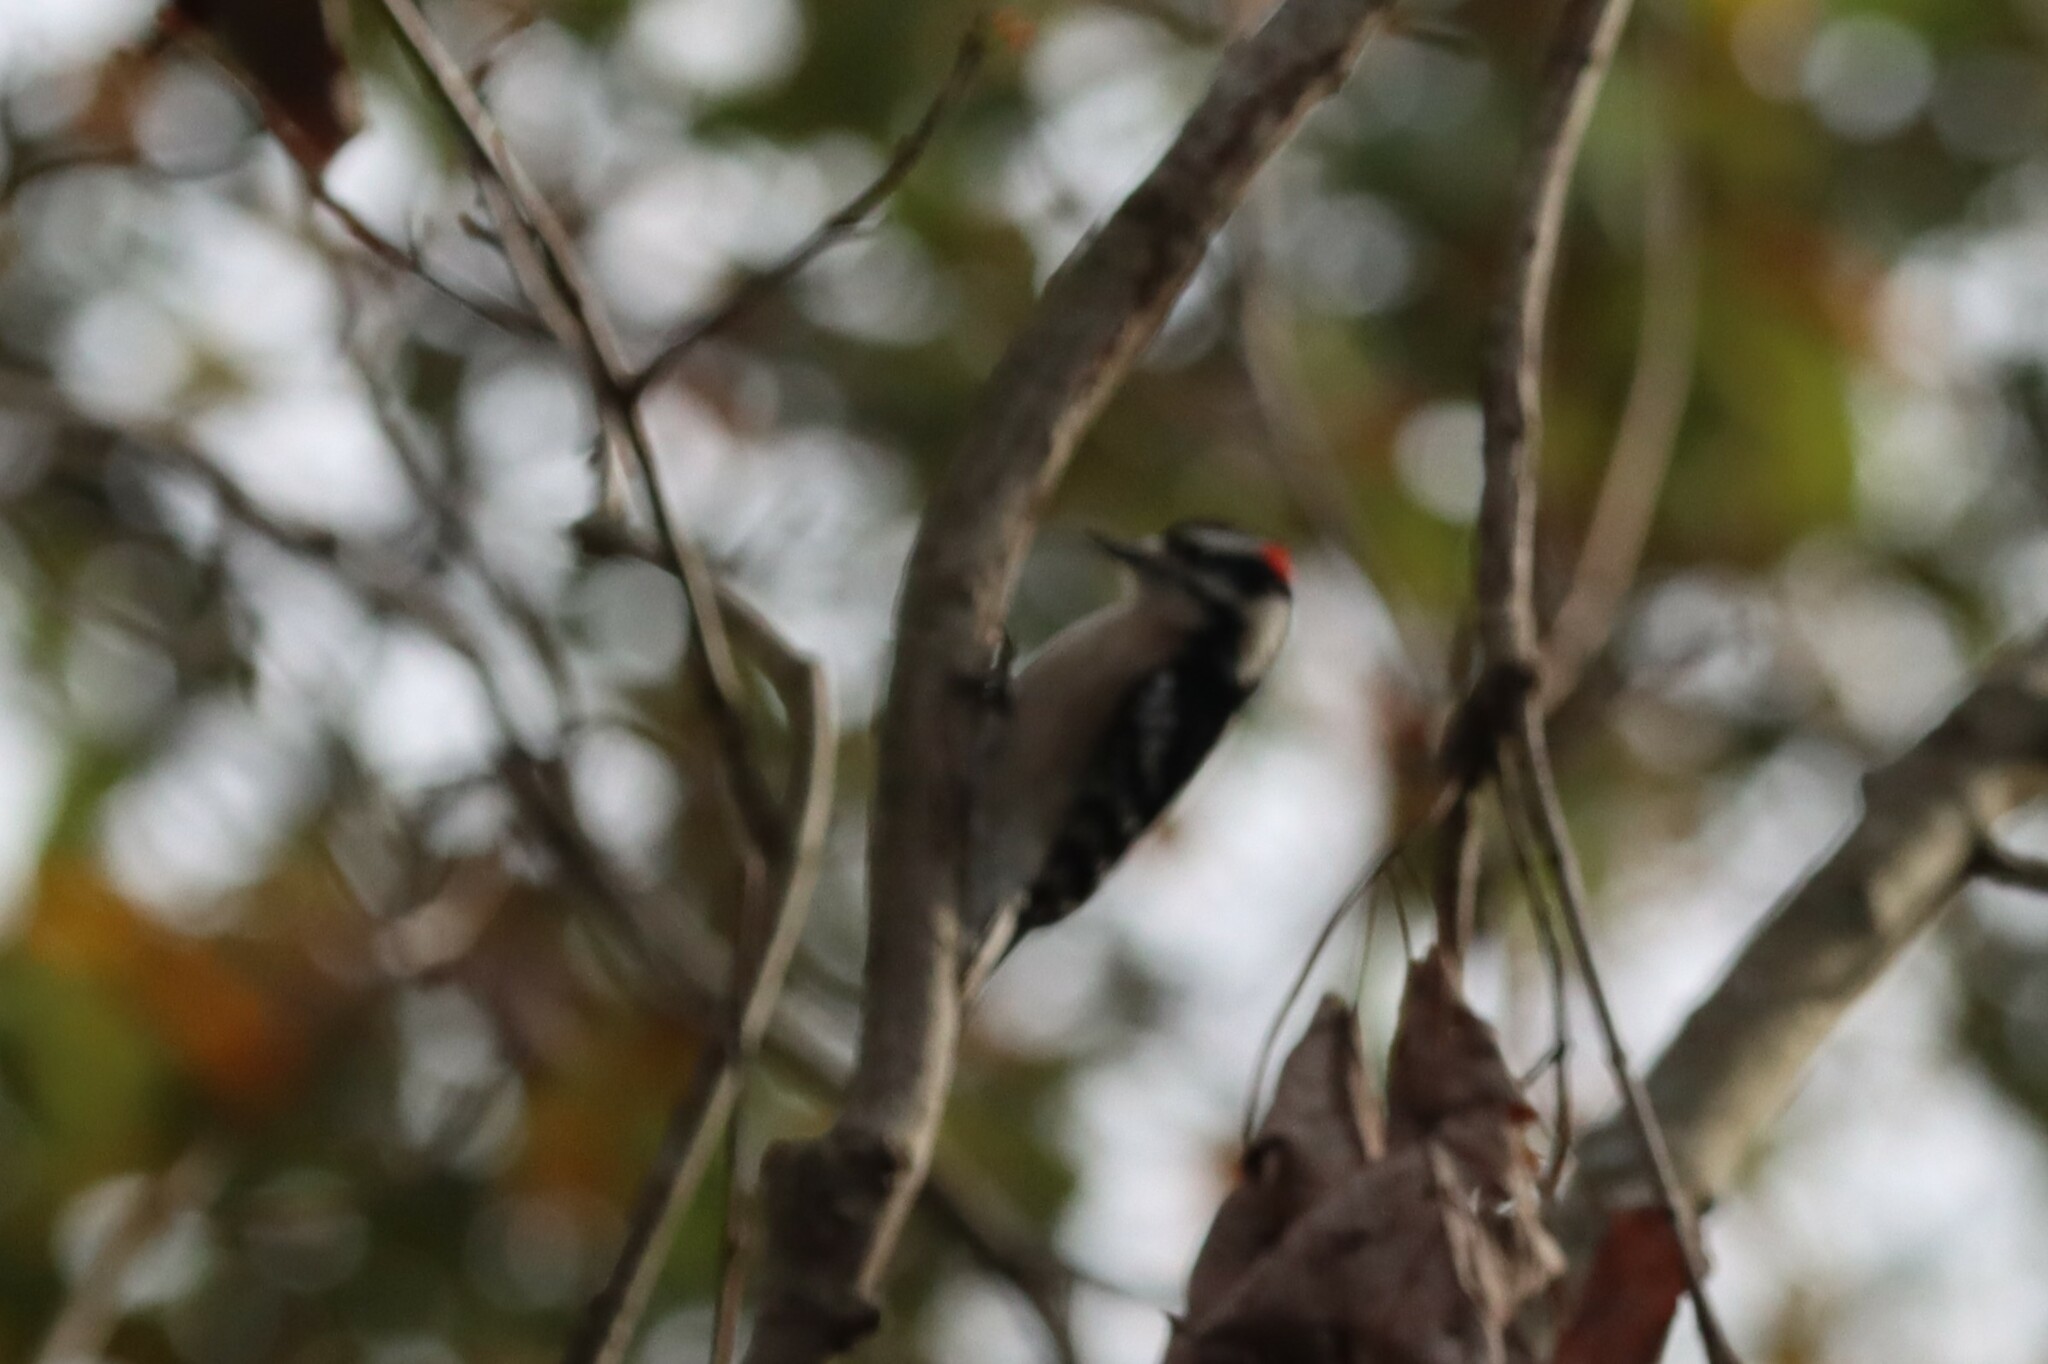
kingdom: Animalia
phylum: Chordata
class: Aves
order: Piciformes
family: Picidae
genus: Dryobates
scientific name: Dryobates pubescens
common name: Downy woodpecker
